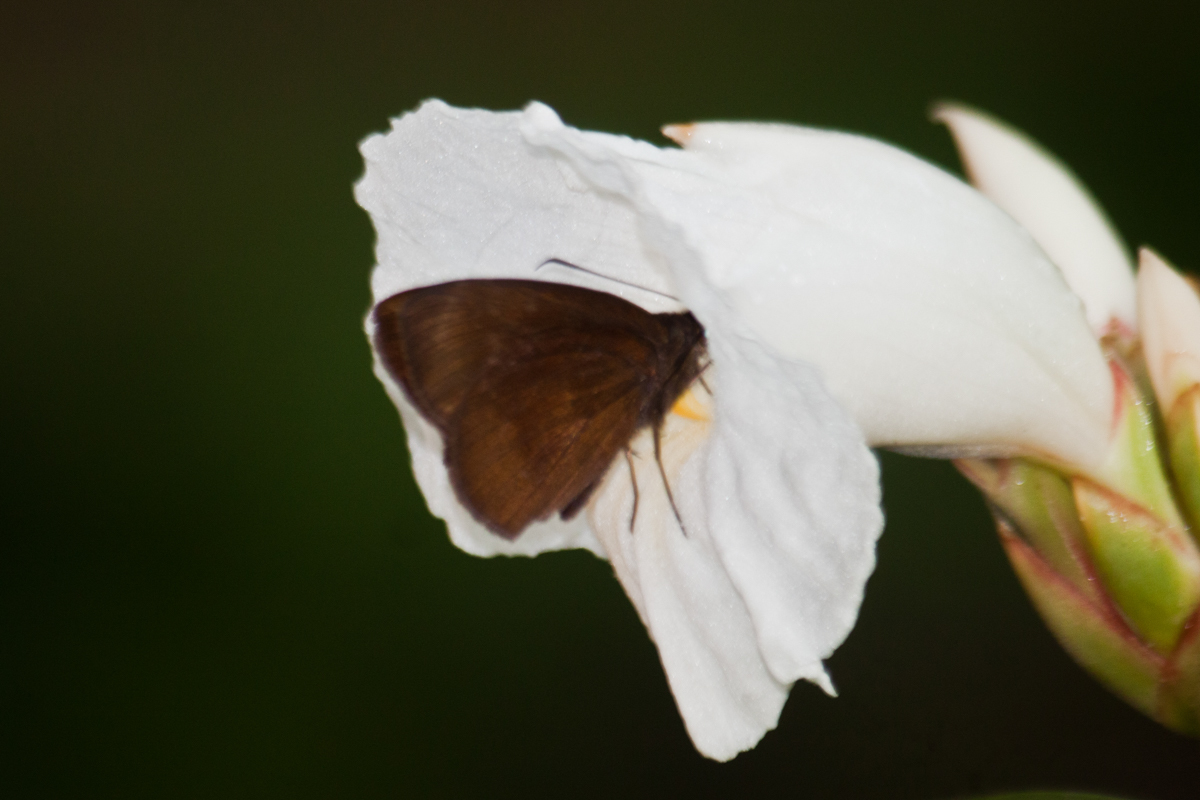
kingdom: Animalia
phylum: Arthropoda
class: Insecta
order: Lepidoptera
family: Hesperiidae
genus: Ancistroides
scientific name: Ancistroides nigrita
